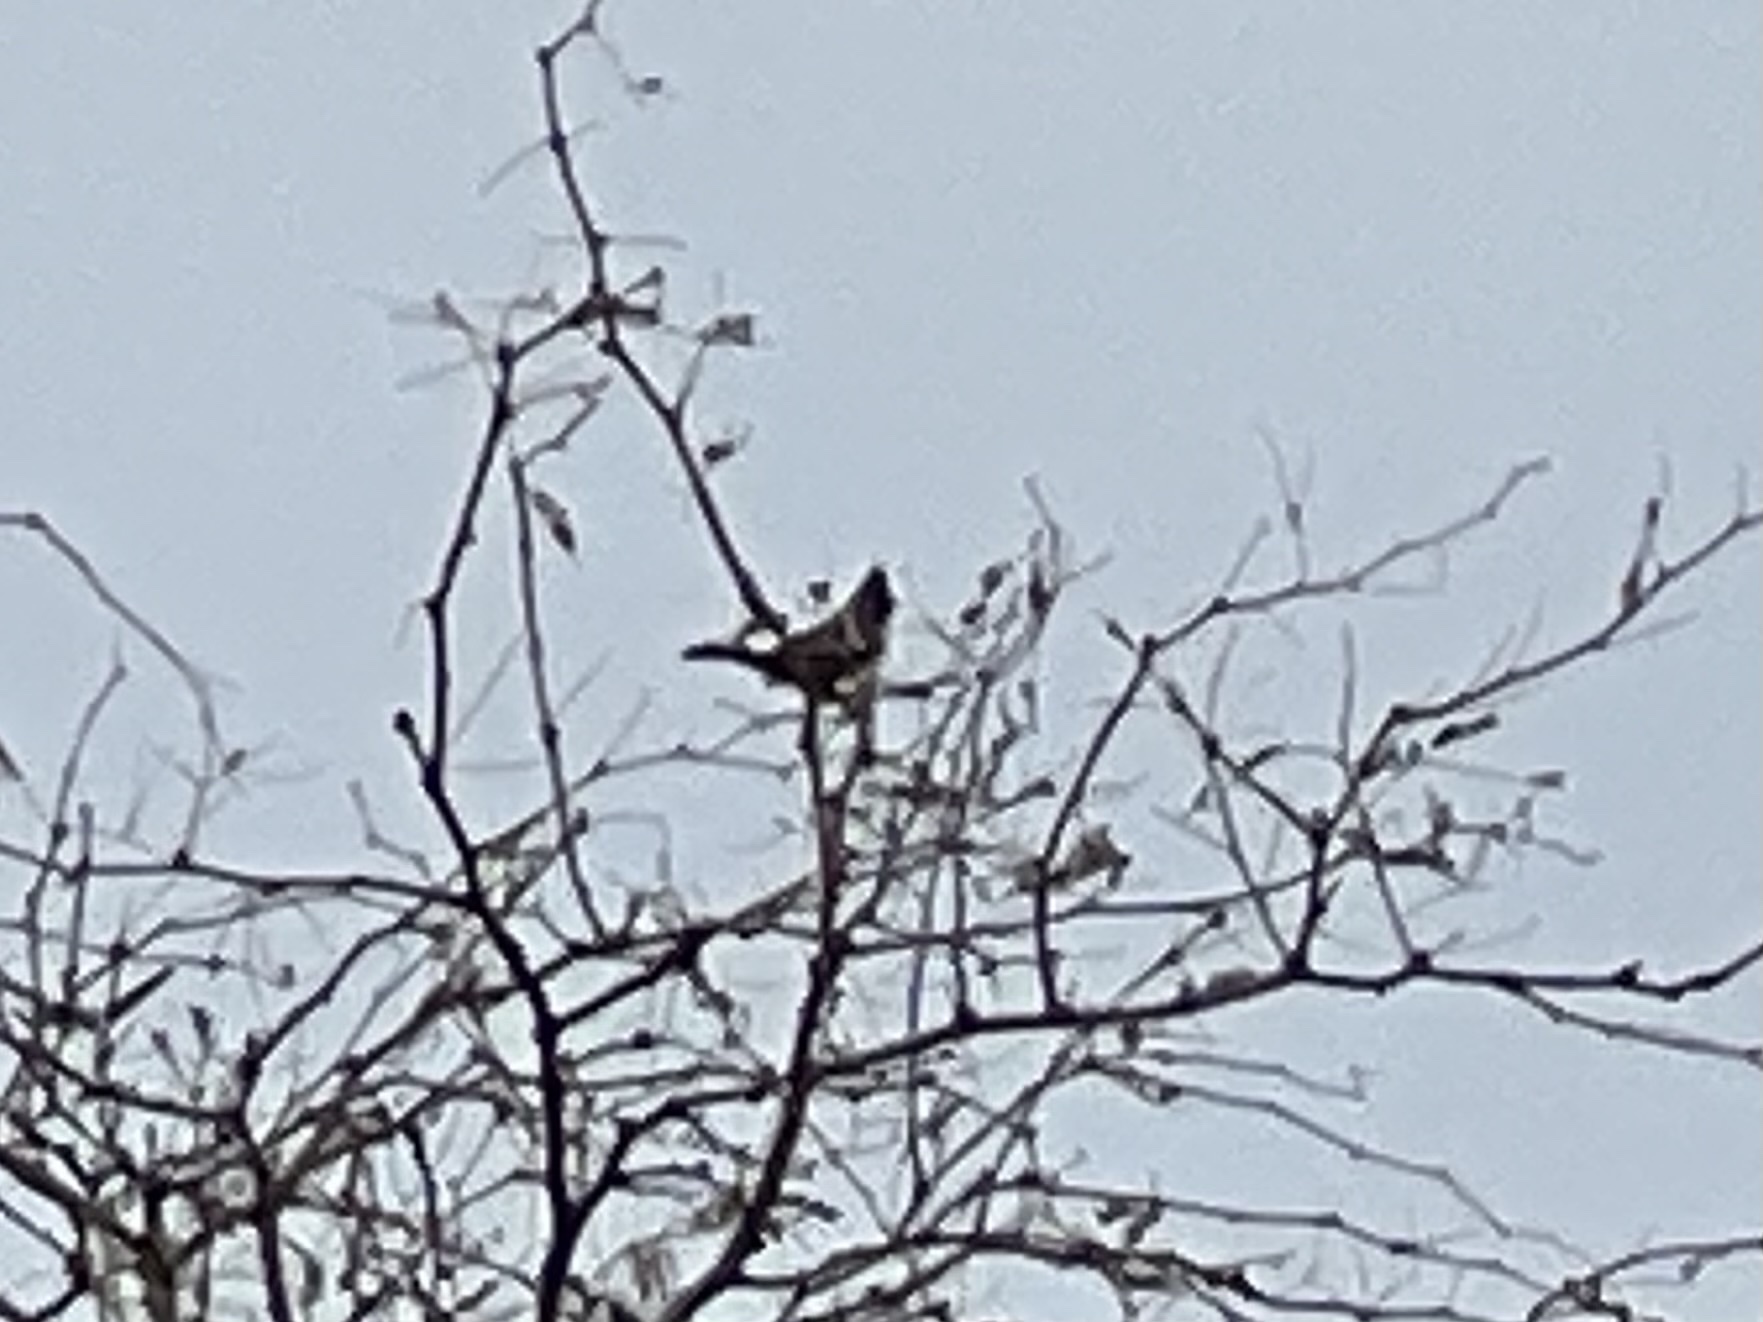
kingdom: Animalia
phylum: Chordata
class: Aves
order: Passeriformes
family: Ptilogonatidae
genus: Phainopepla
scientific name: Phainopepla nitens
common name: Phainopepla
